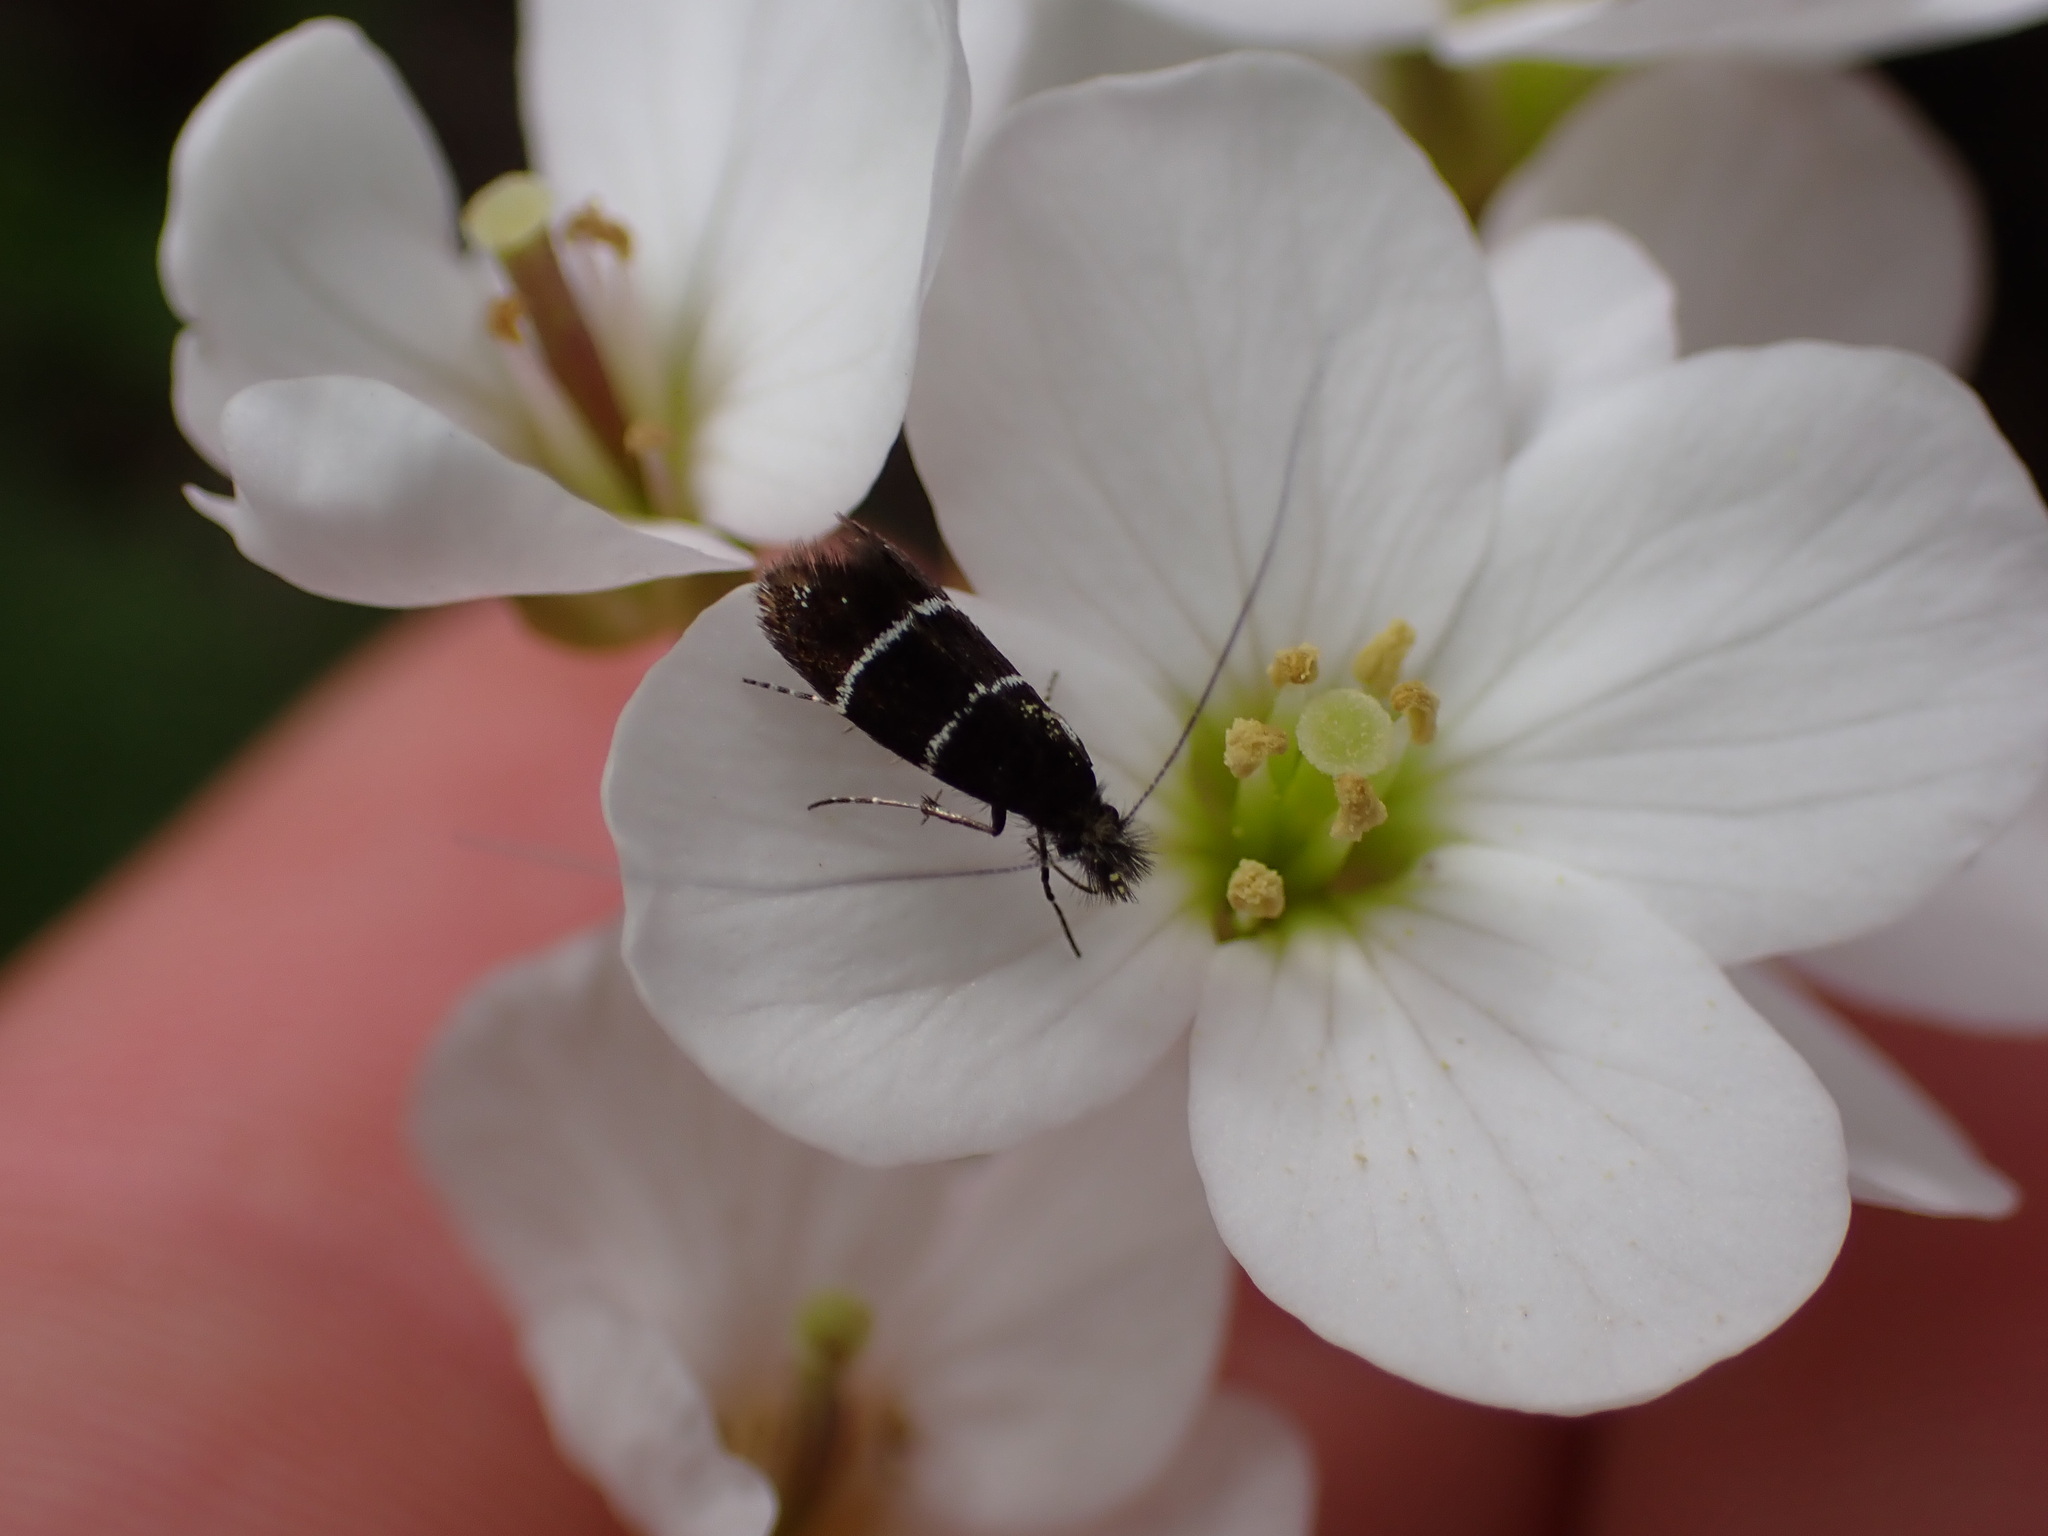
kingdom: Animalia
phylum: Arthropoda
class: Insecta
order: Lepidoptera
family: Adelidae
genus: Adela
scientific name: Adela septentrionella
